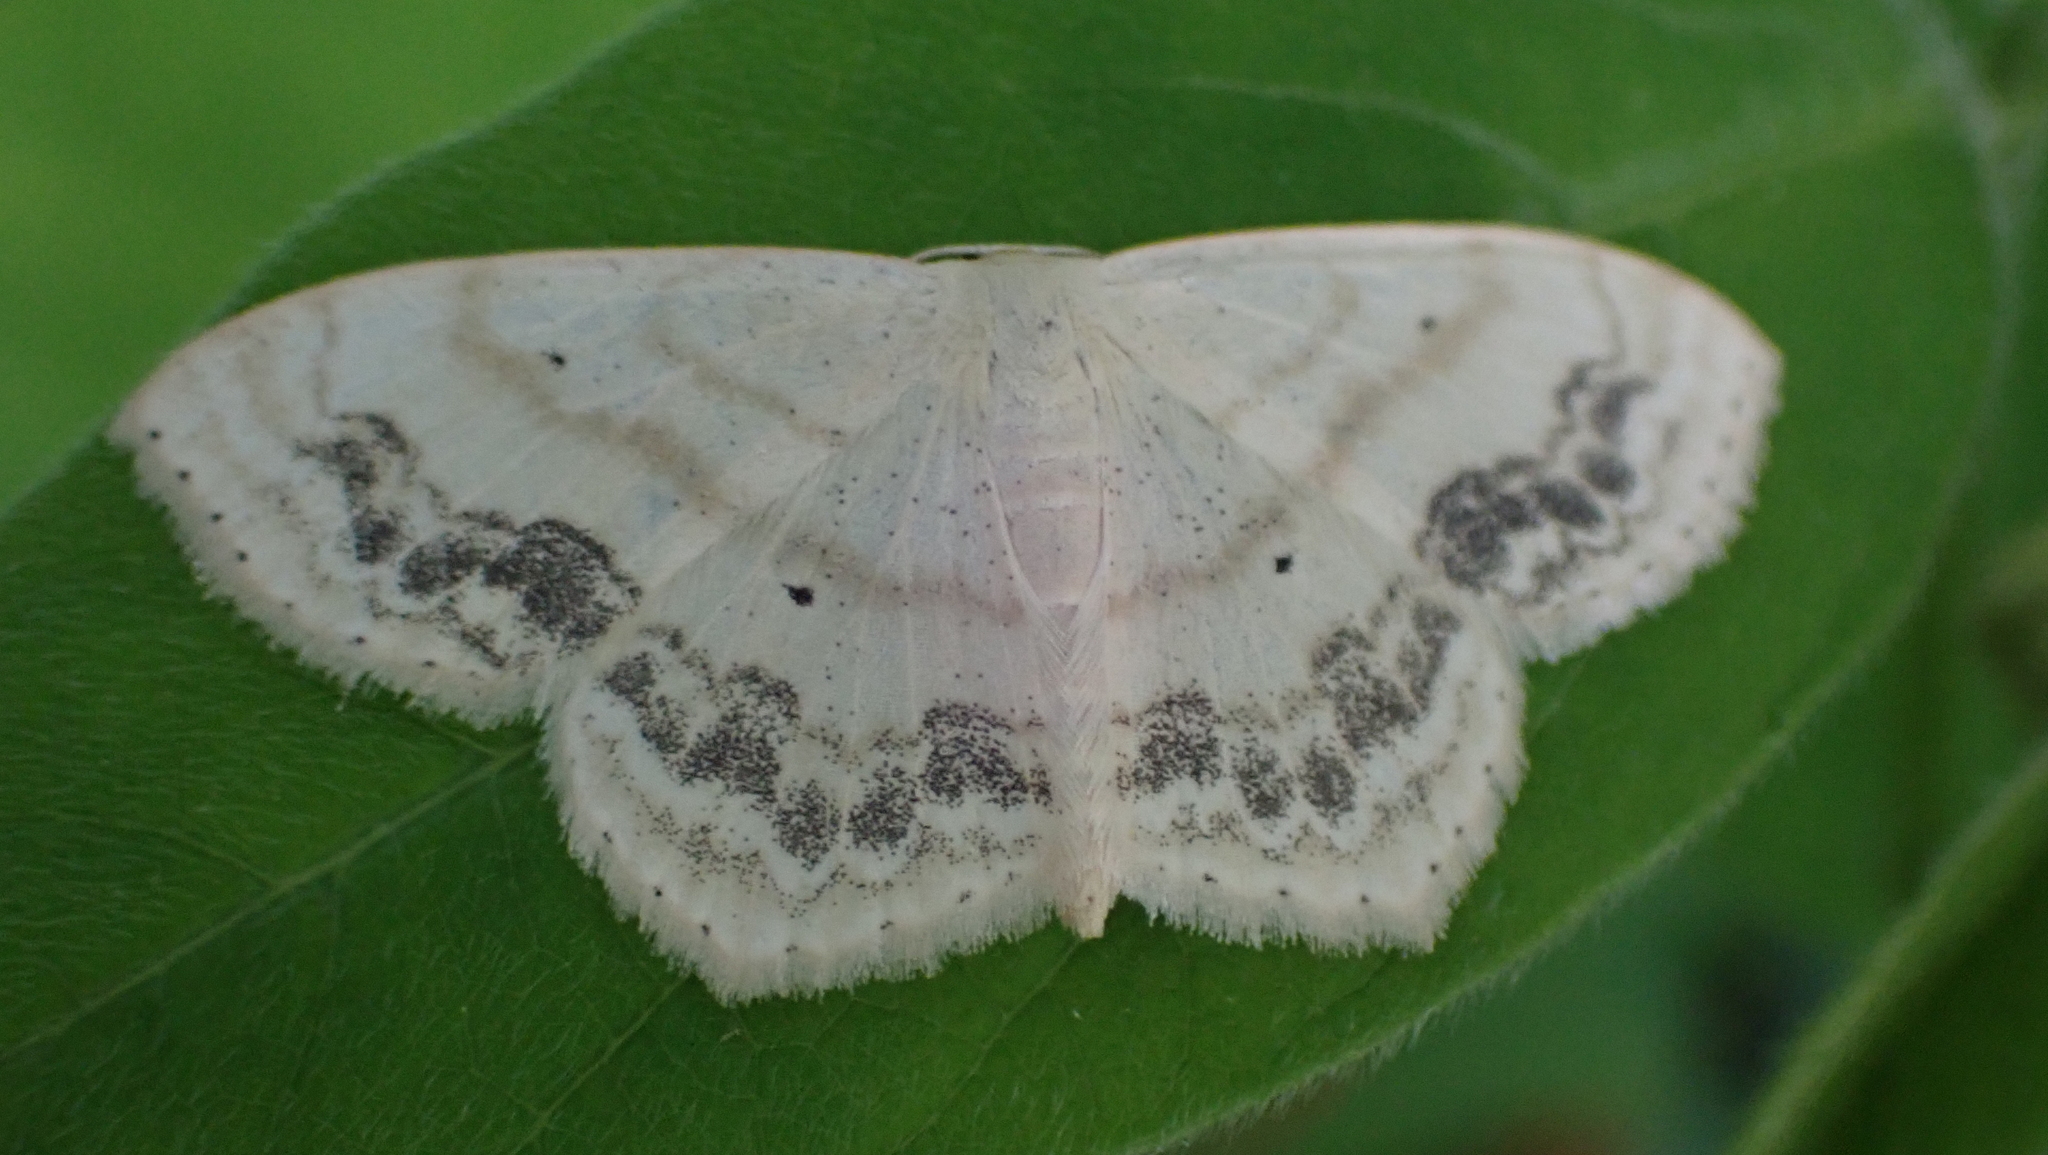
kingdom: Animalia
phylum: Arthropoda
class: Insecta
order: Lepidoptera
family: Geometridae
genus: Scopula
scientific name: Scopula limboundata
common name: Large lace border
